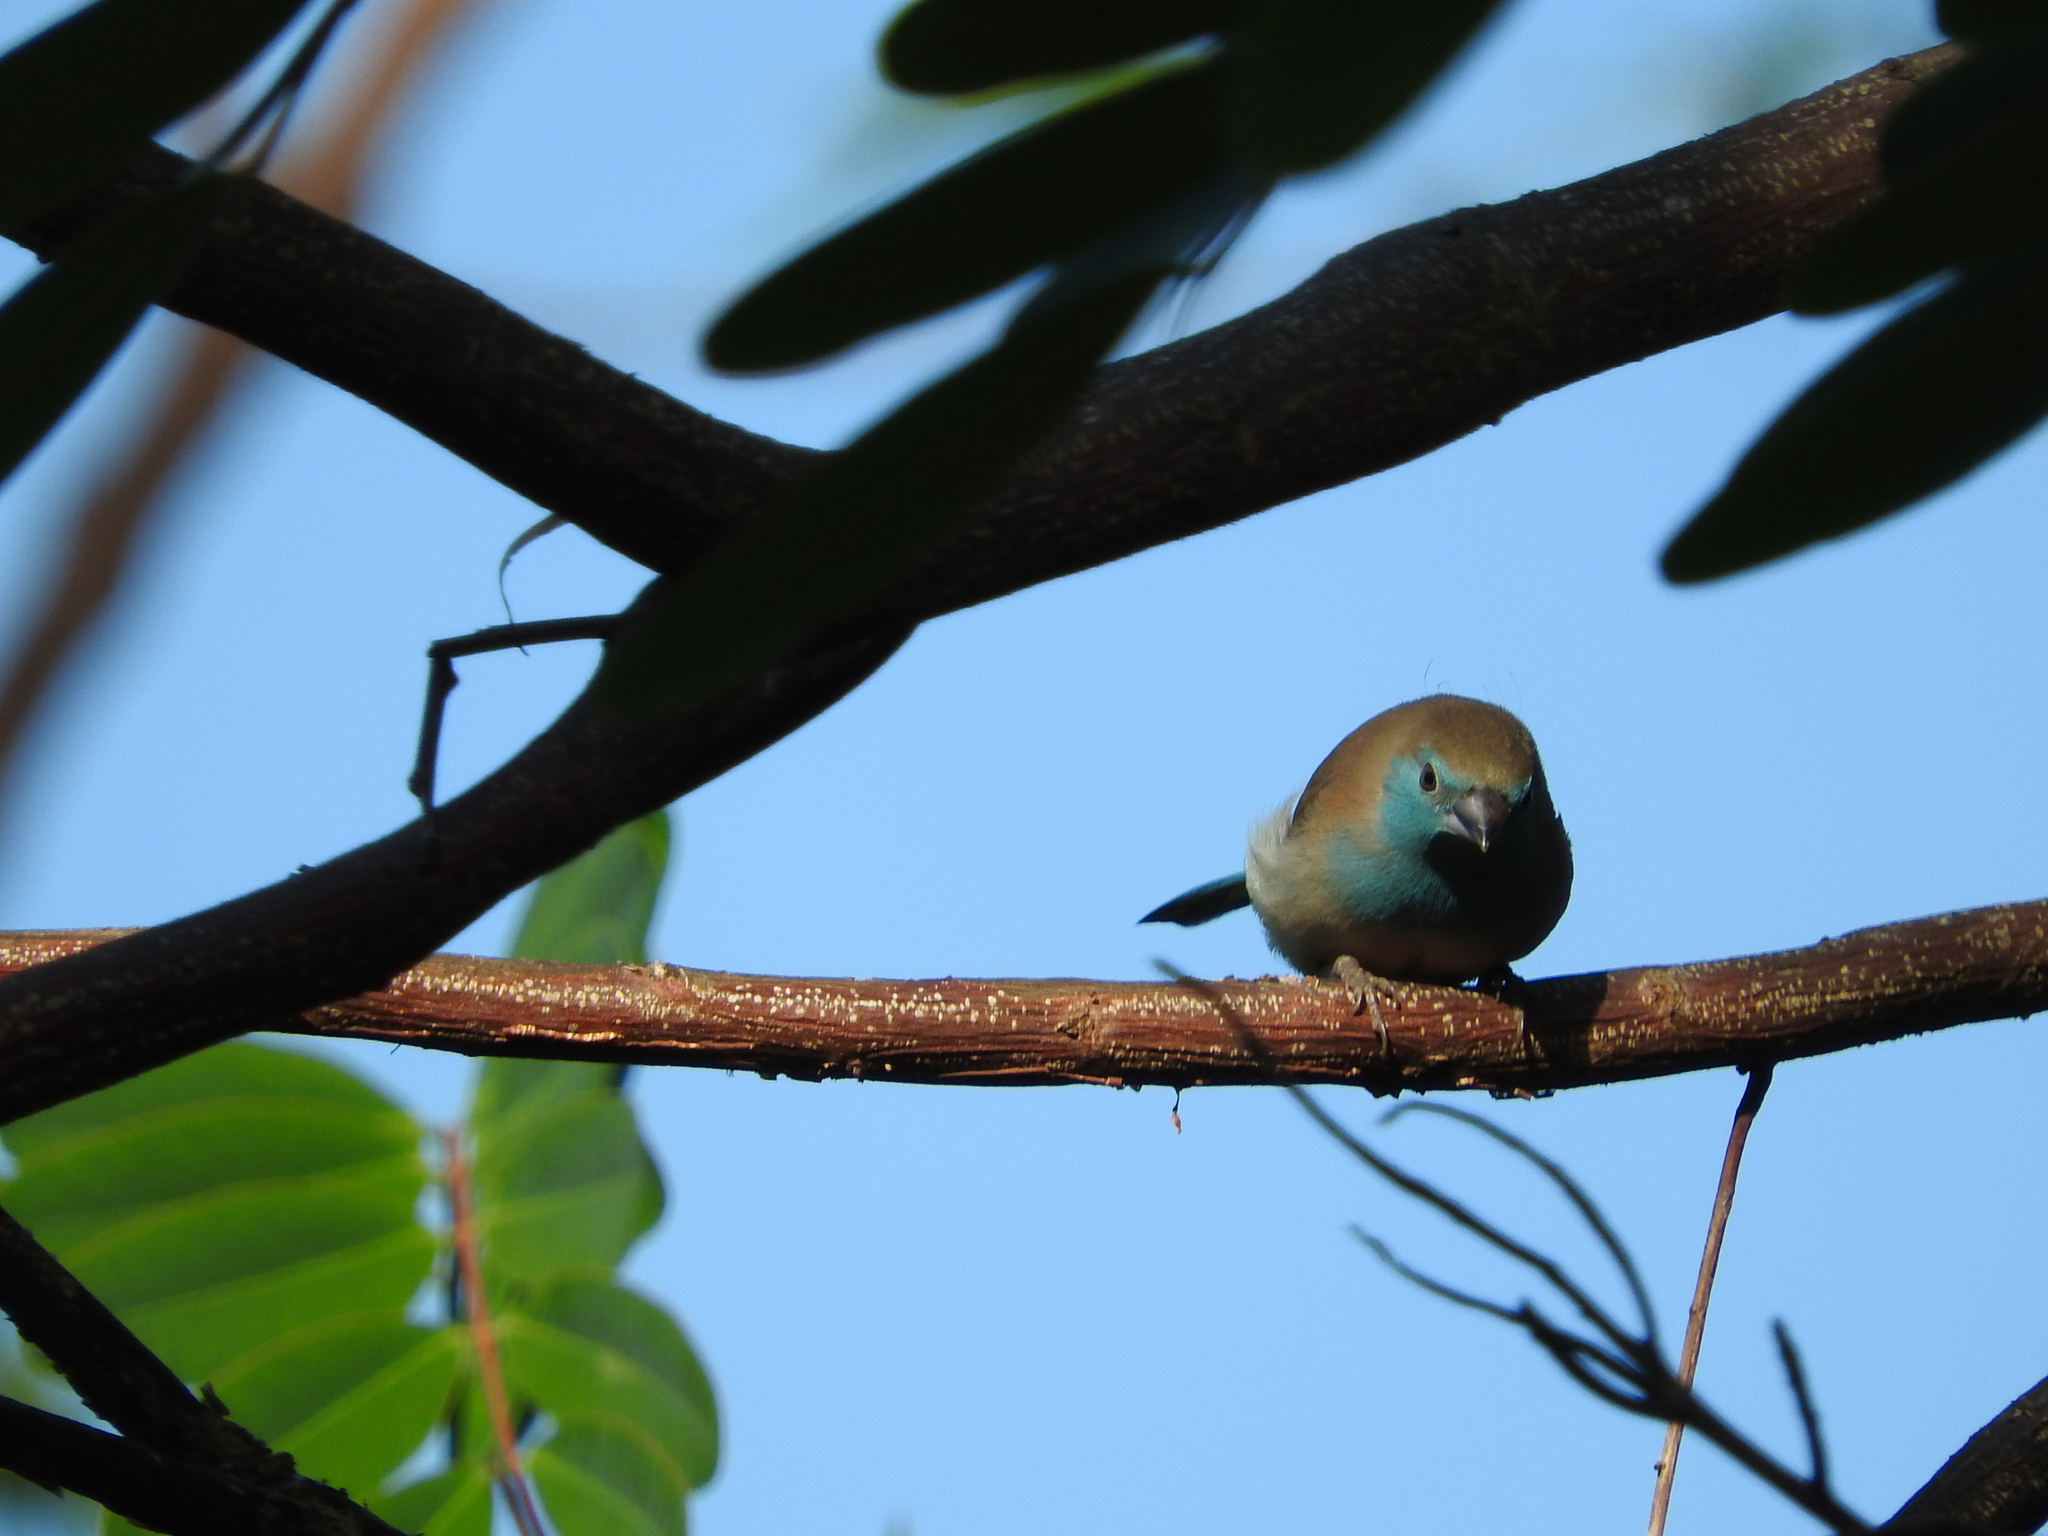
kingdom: Animalia
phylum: Chordata
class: Aves
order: Passeriformes
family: Estrildidae
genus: Uraeginthus
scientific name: Uraeginthus angolensis
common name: Blue waxbill
